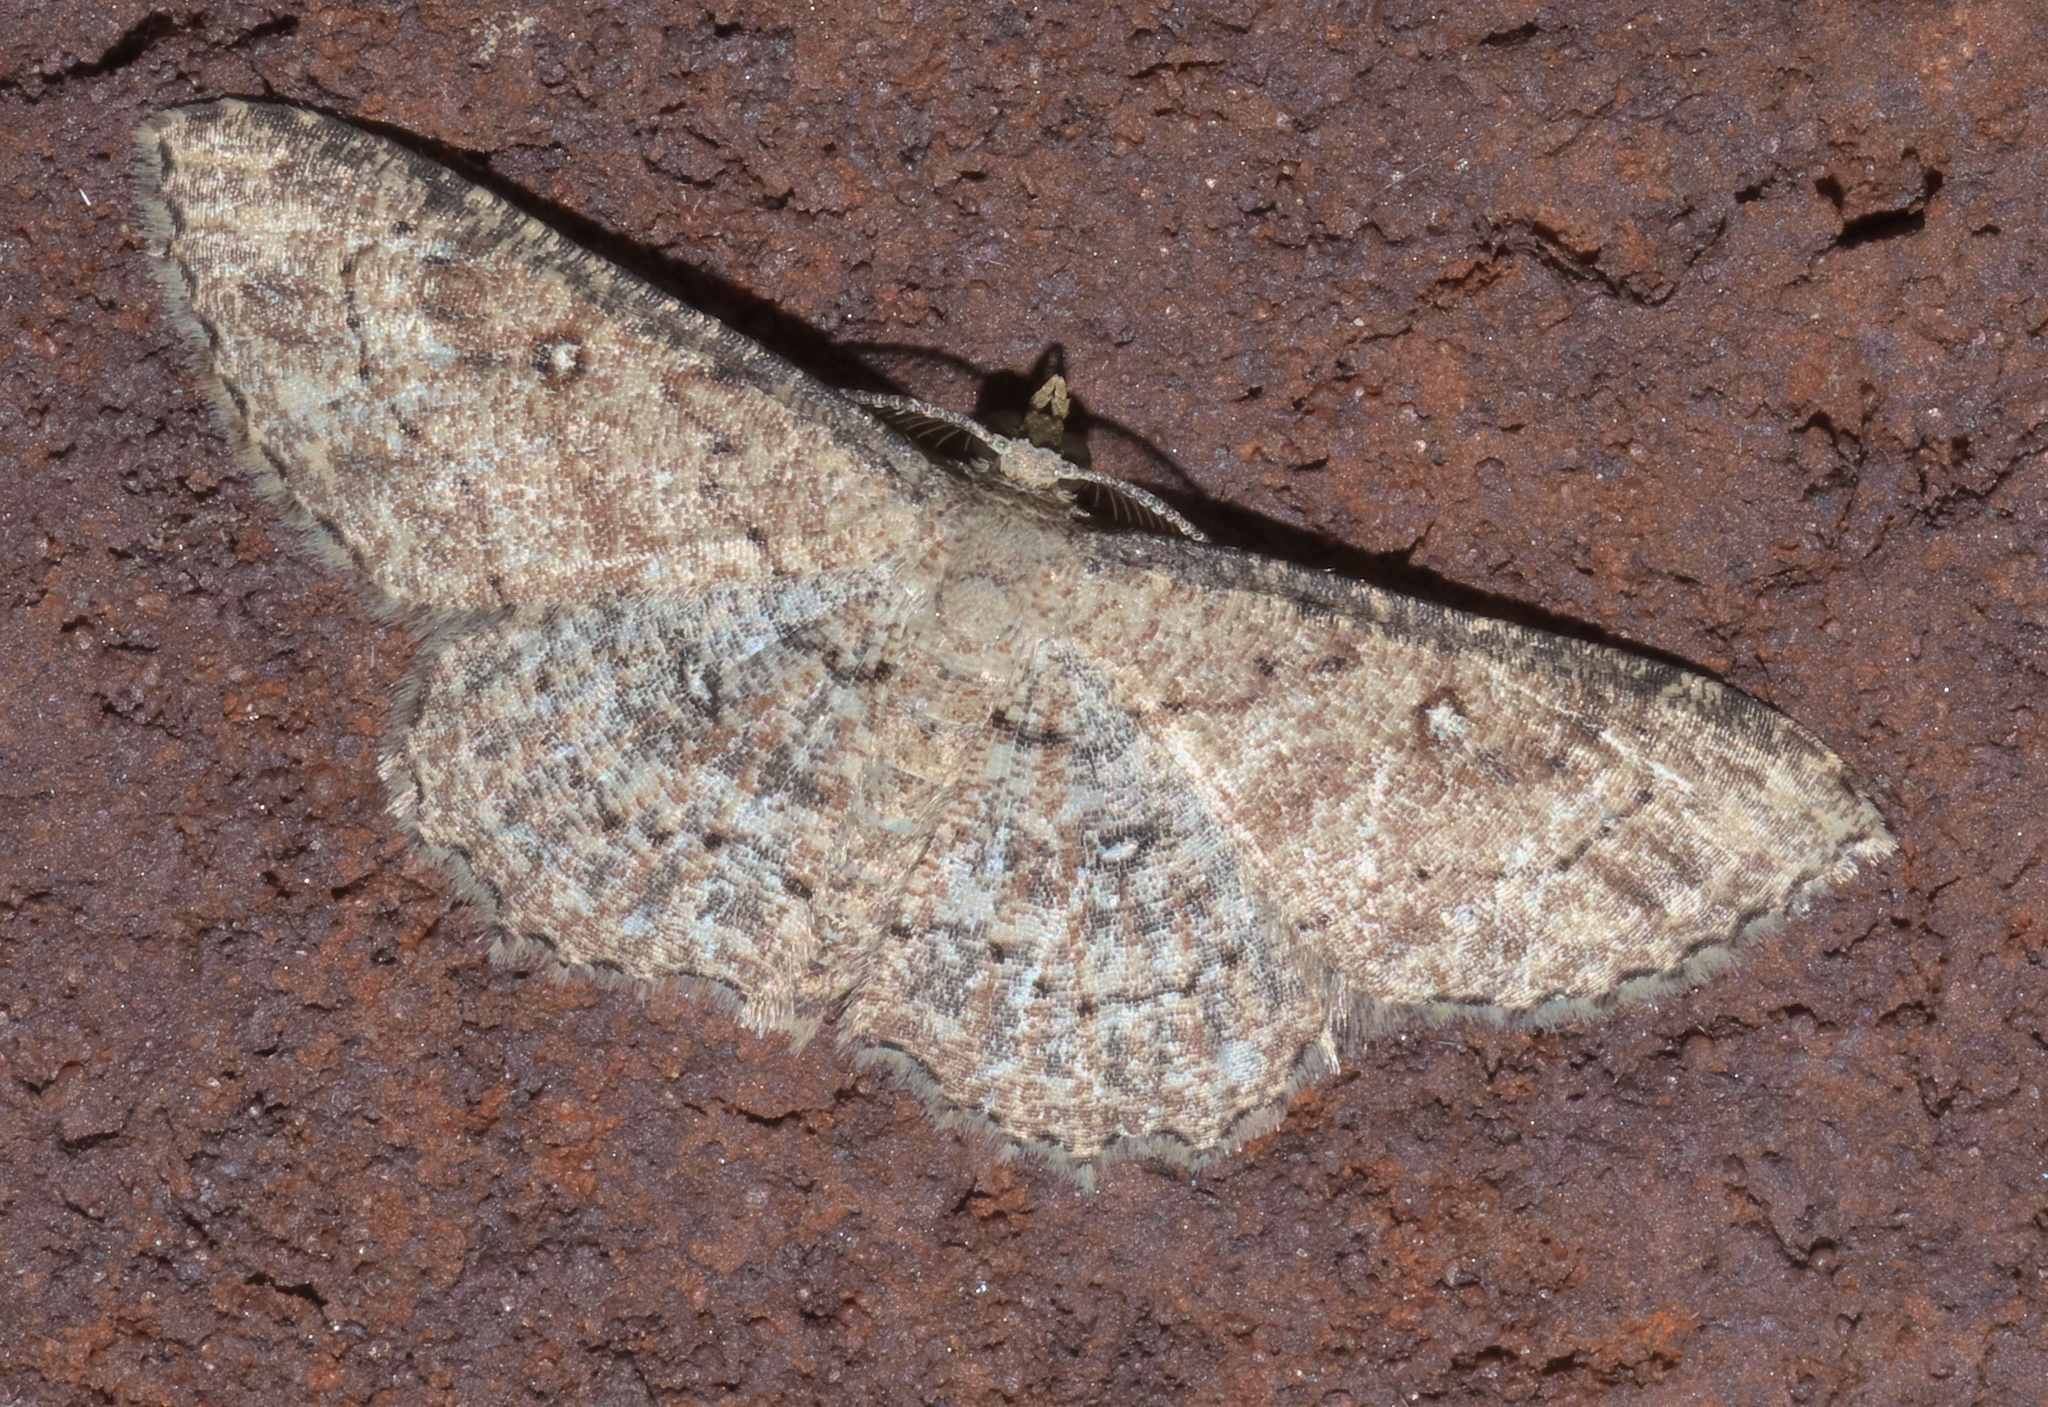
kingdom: Animalia
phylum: Arthropoda
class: Insecta
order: Lepidoptera
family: Geometridae
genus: Cyclophora
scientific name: Cyclophora nanaria
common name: Cankerworm
